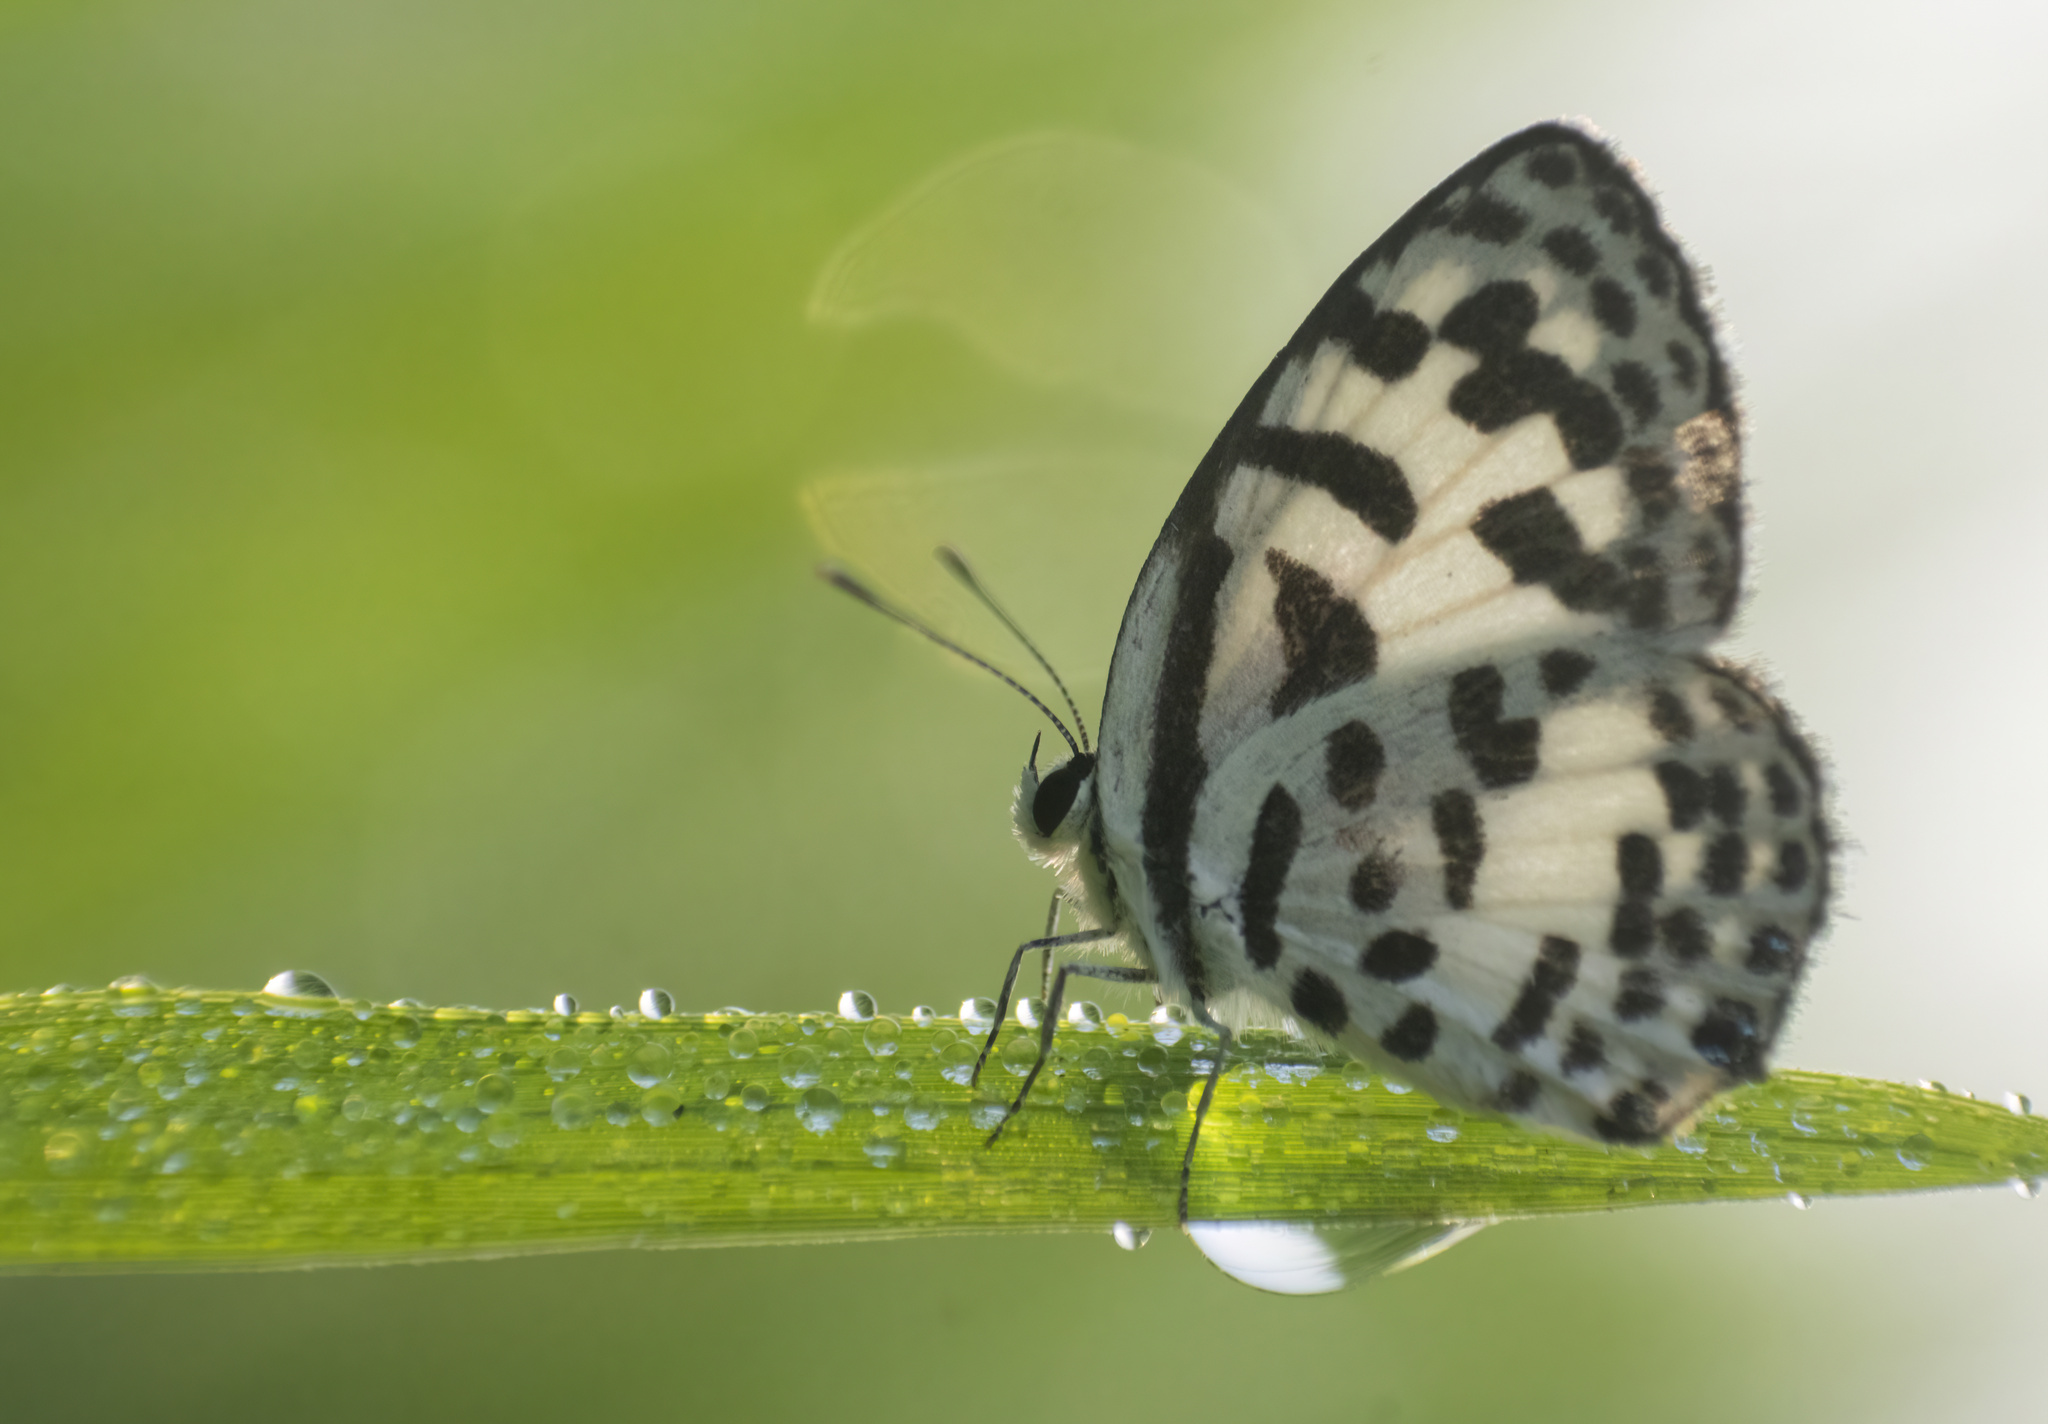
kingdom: Animalia
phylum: Arthropoda
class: Insecta
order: Lepidoptera
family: Lycaenidae
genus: Castalius
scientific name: Castalius rosimon
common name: Common pierrot
